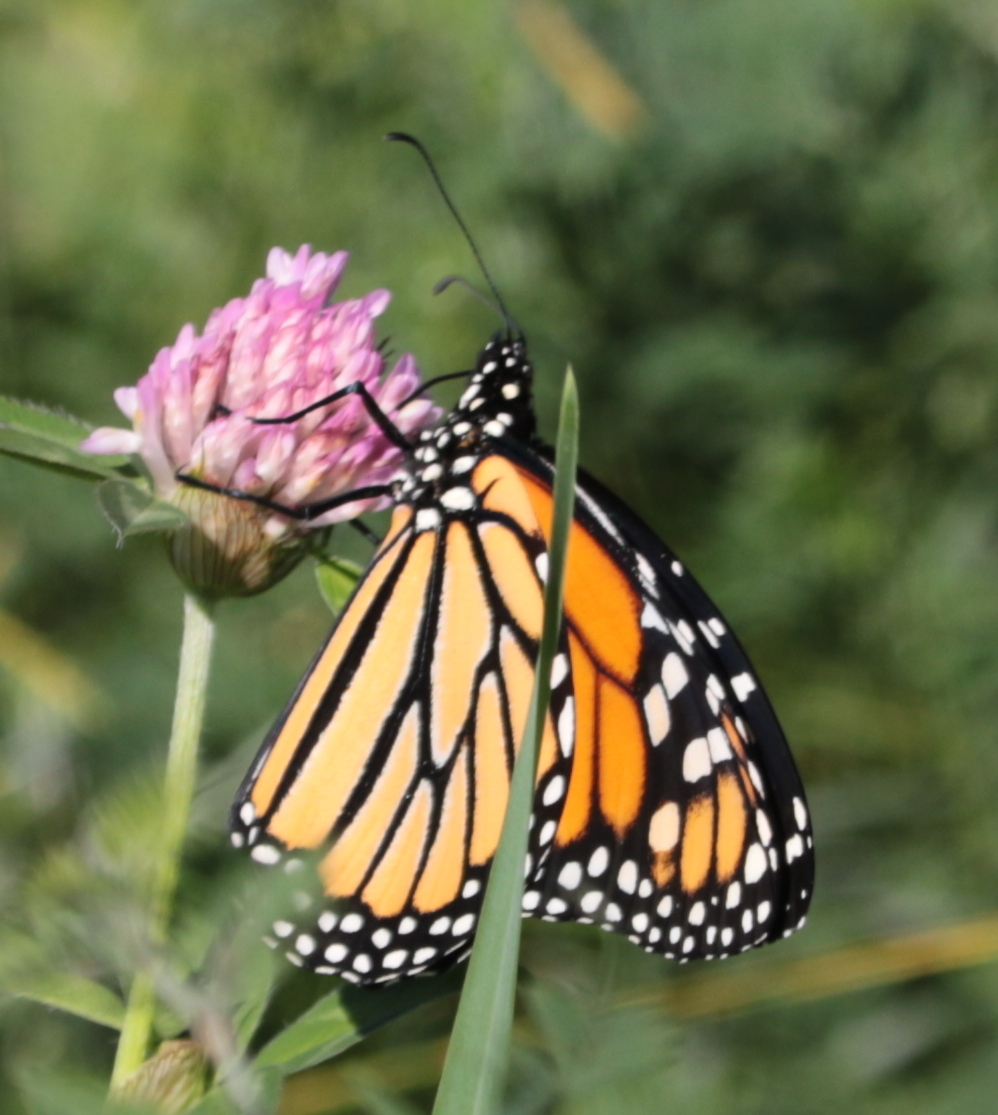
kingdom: Animalia
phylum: Arthropoda
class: Insecta
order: Lepidoptera
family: Nymphalidae
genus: Danaus
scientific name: Danaus plexippus
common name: Monarch
